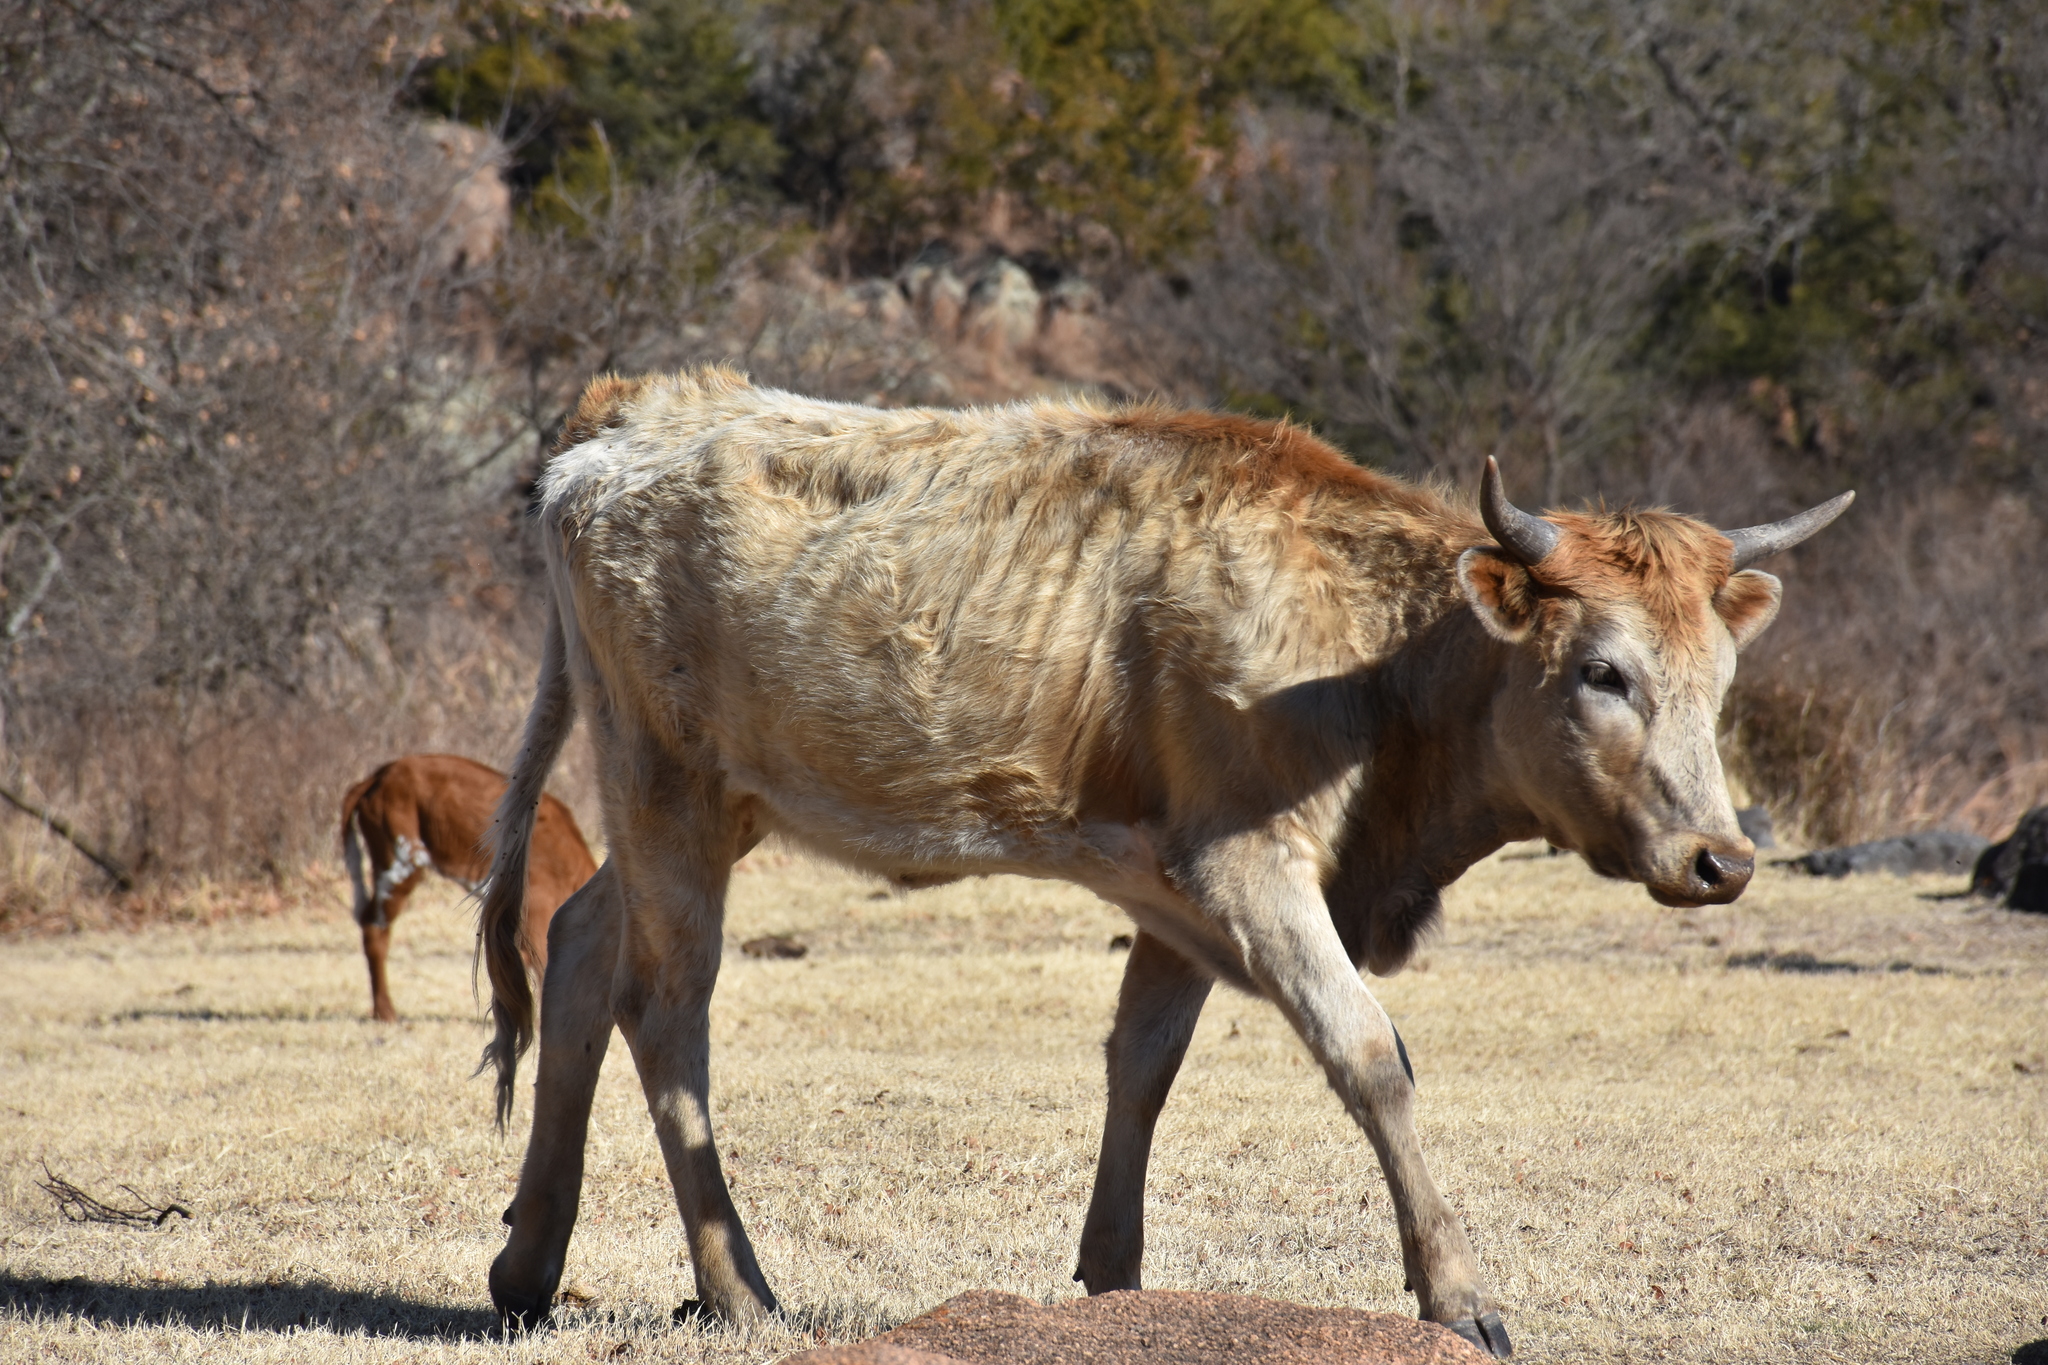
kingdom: Animalia
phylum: Chordata
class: Mammalia
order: Artiodactyla
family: Bovidae
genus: Bos
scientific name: Bos taurus
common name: Domesticated cattle
